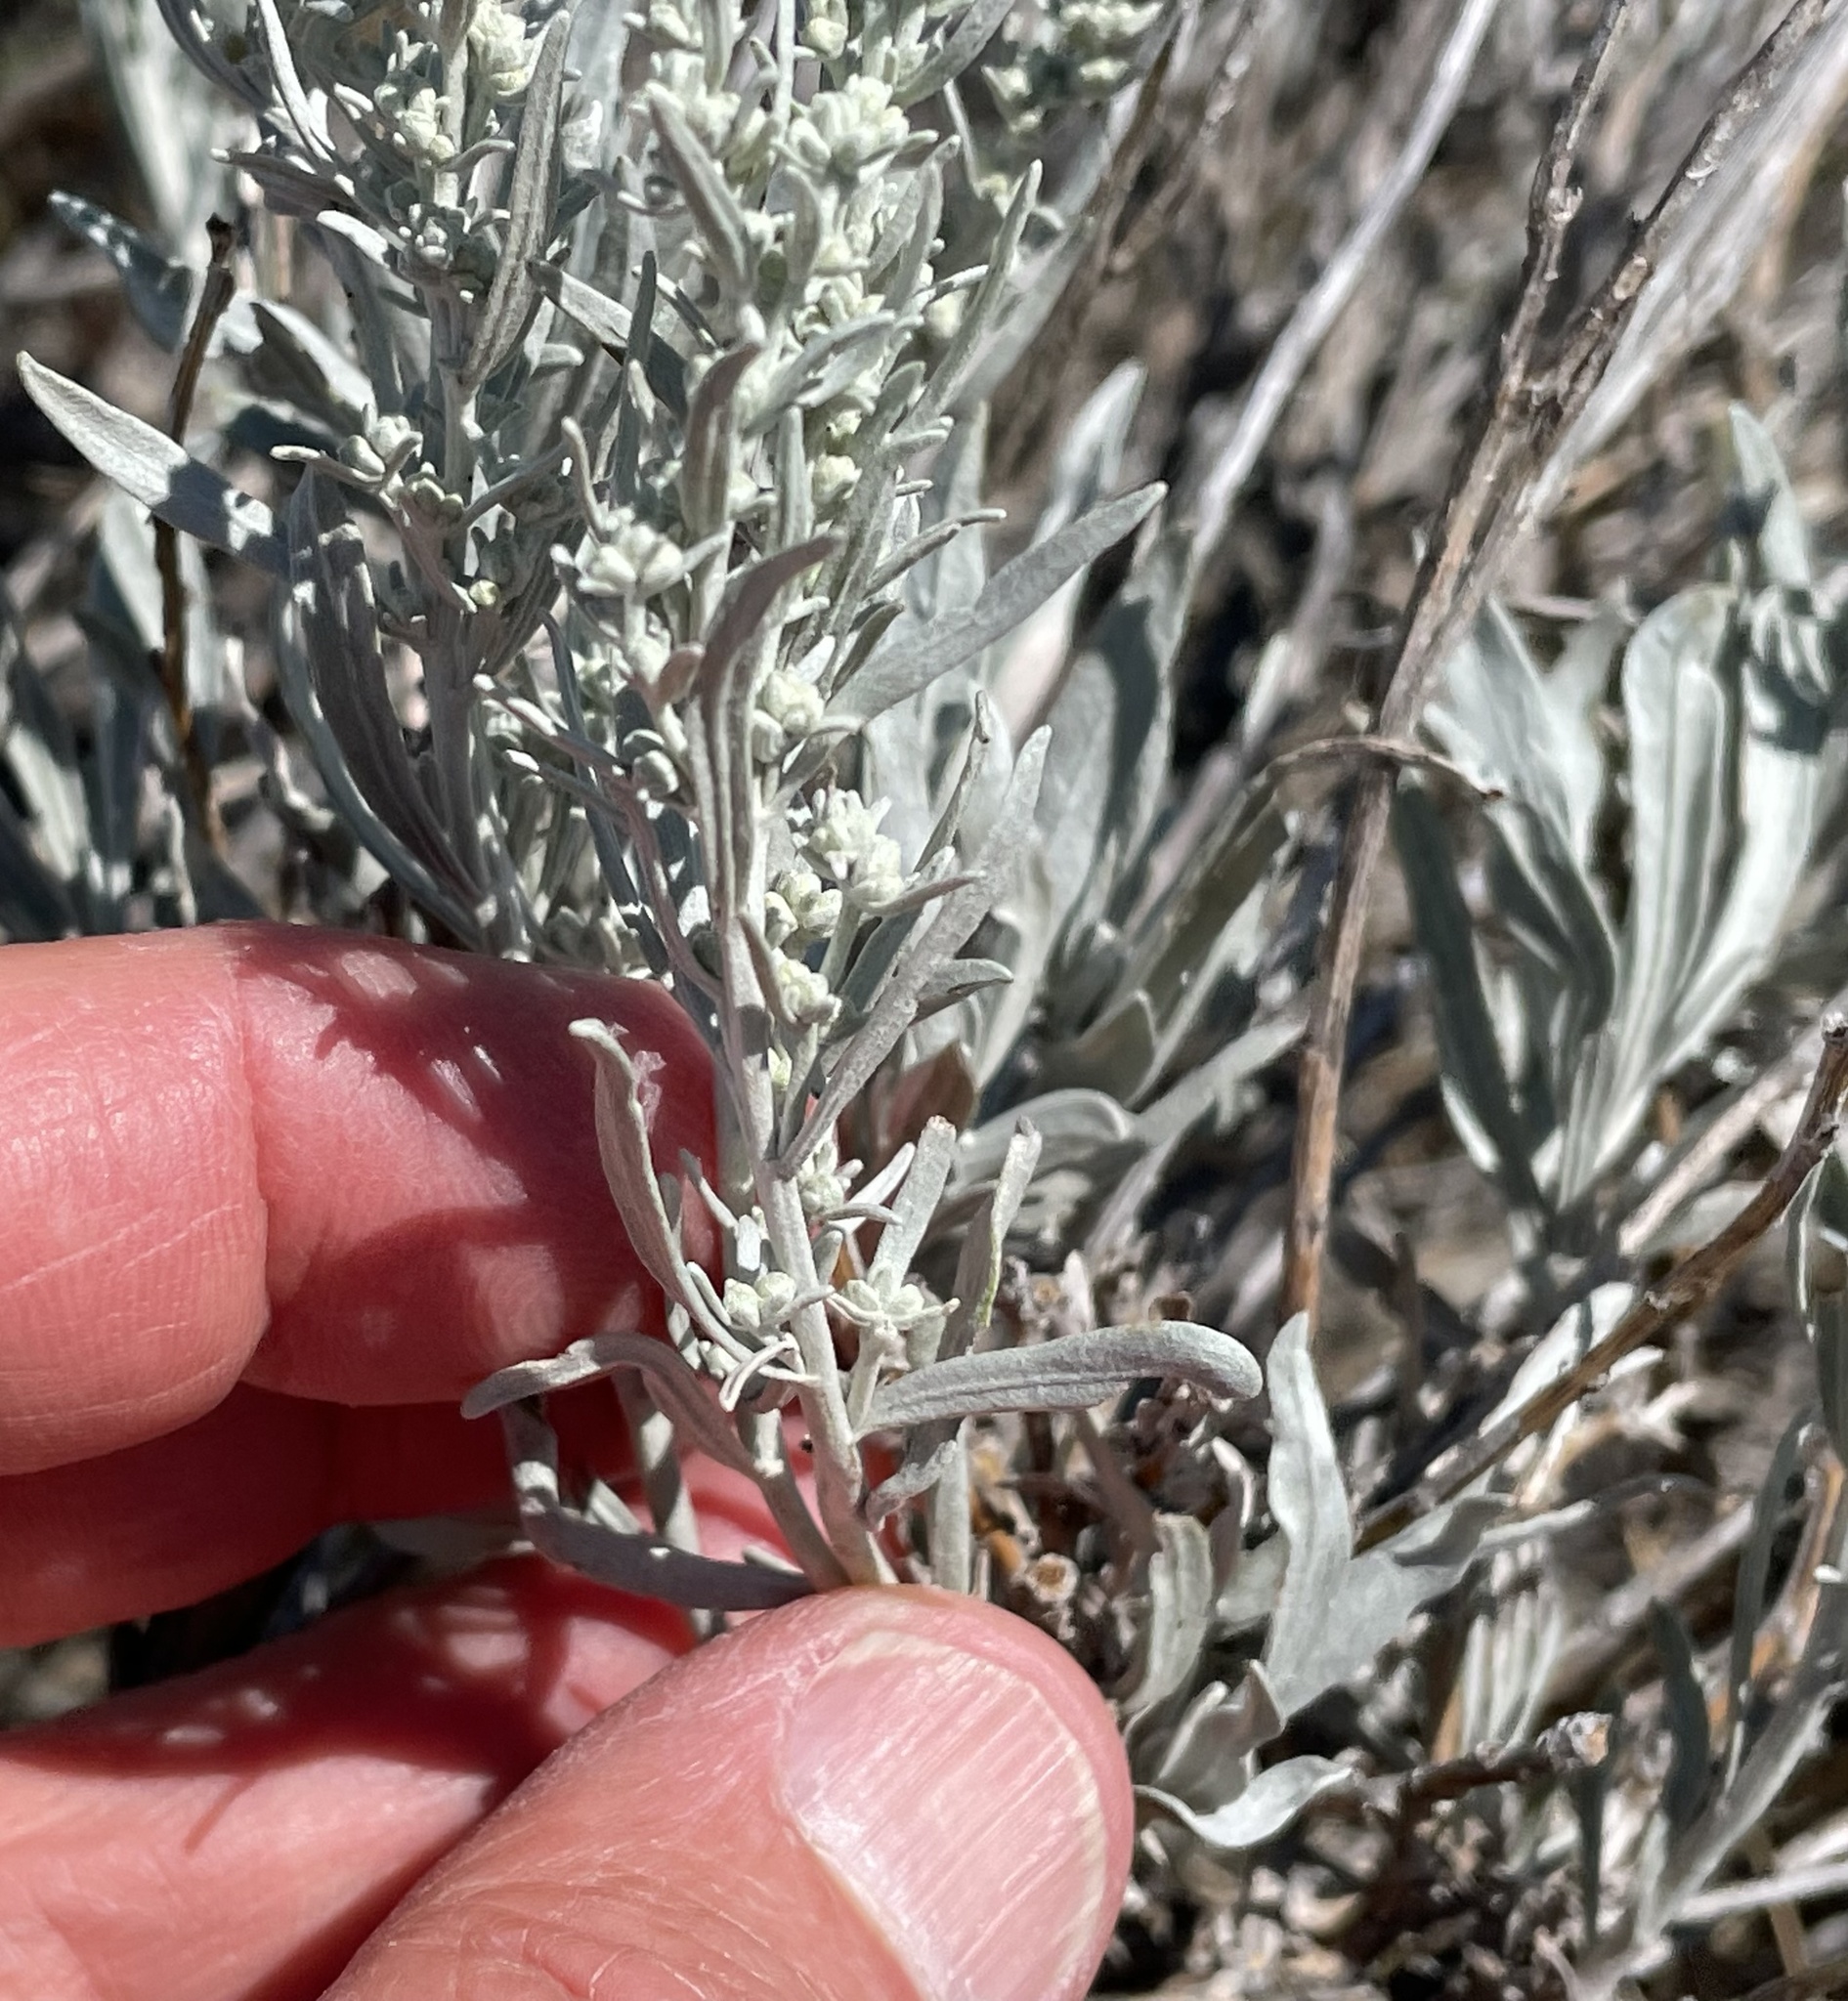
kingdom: Plantae
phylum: Tracheophyta
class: Magnoliopsida
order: Asterales
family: Asteraceae
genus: Artemisia
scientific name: Artemisia cana
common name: Silver sagebrush
